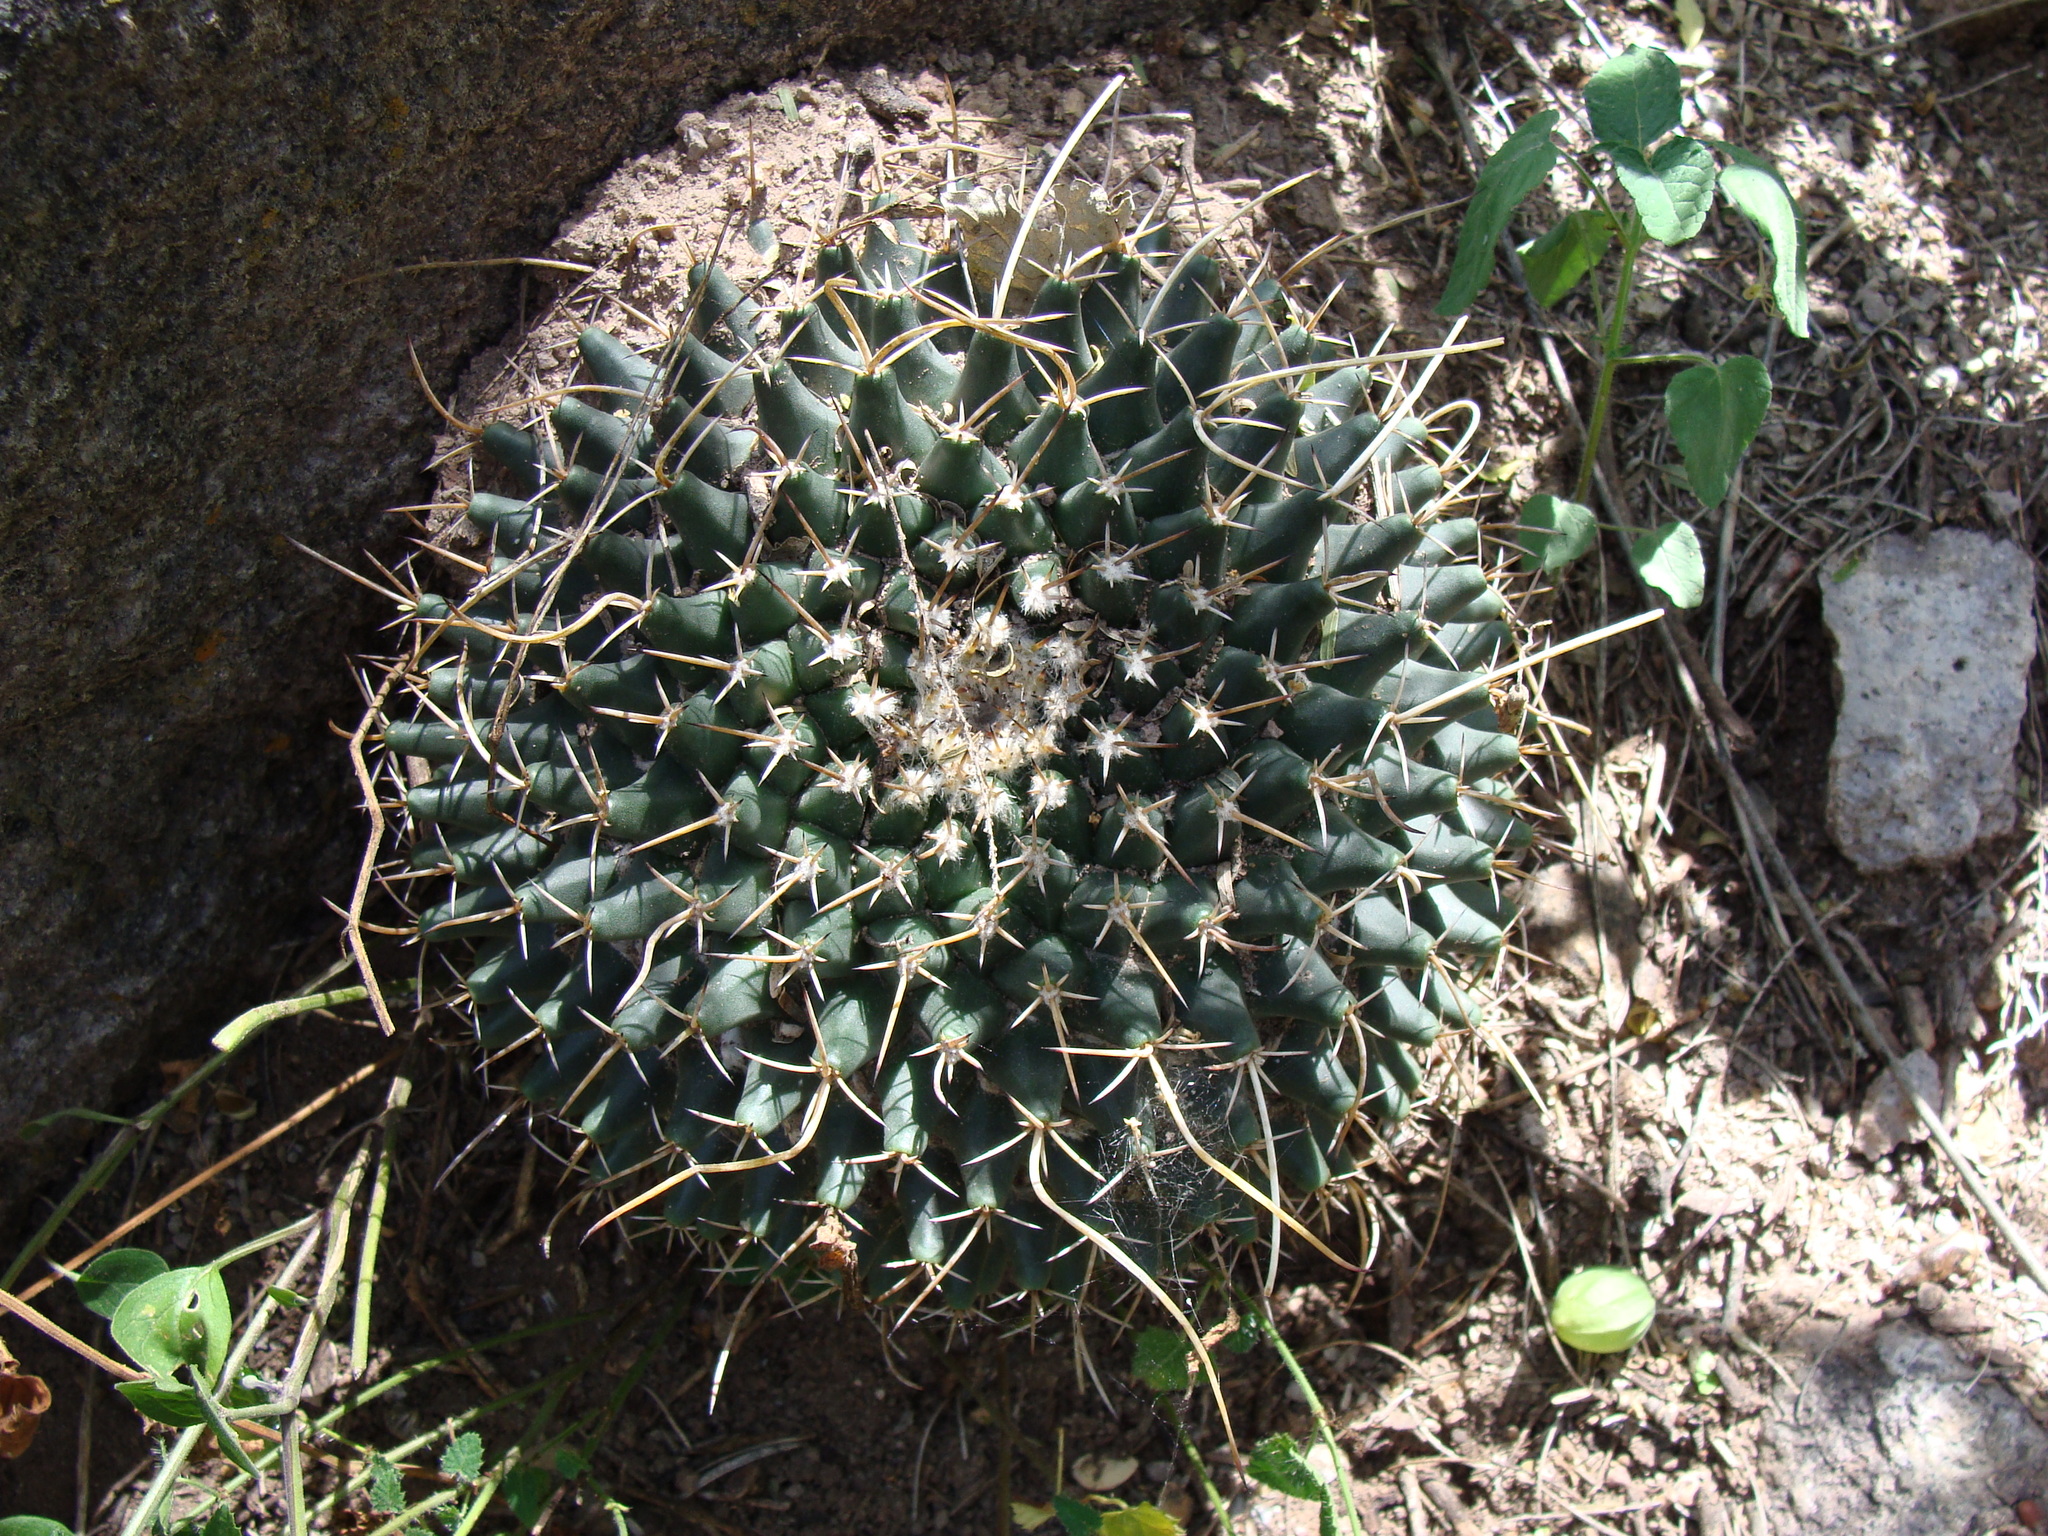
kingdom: Plantae
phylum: Tracheophyta
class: Magnoliopsida
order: Caryophyllales
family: Cactaceae
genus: Mammillaria
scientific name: Mammillaria magnimamma
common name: Mexican pincushion
